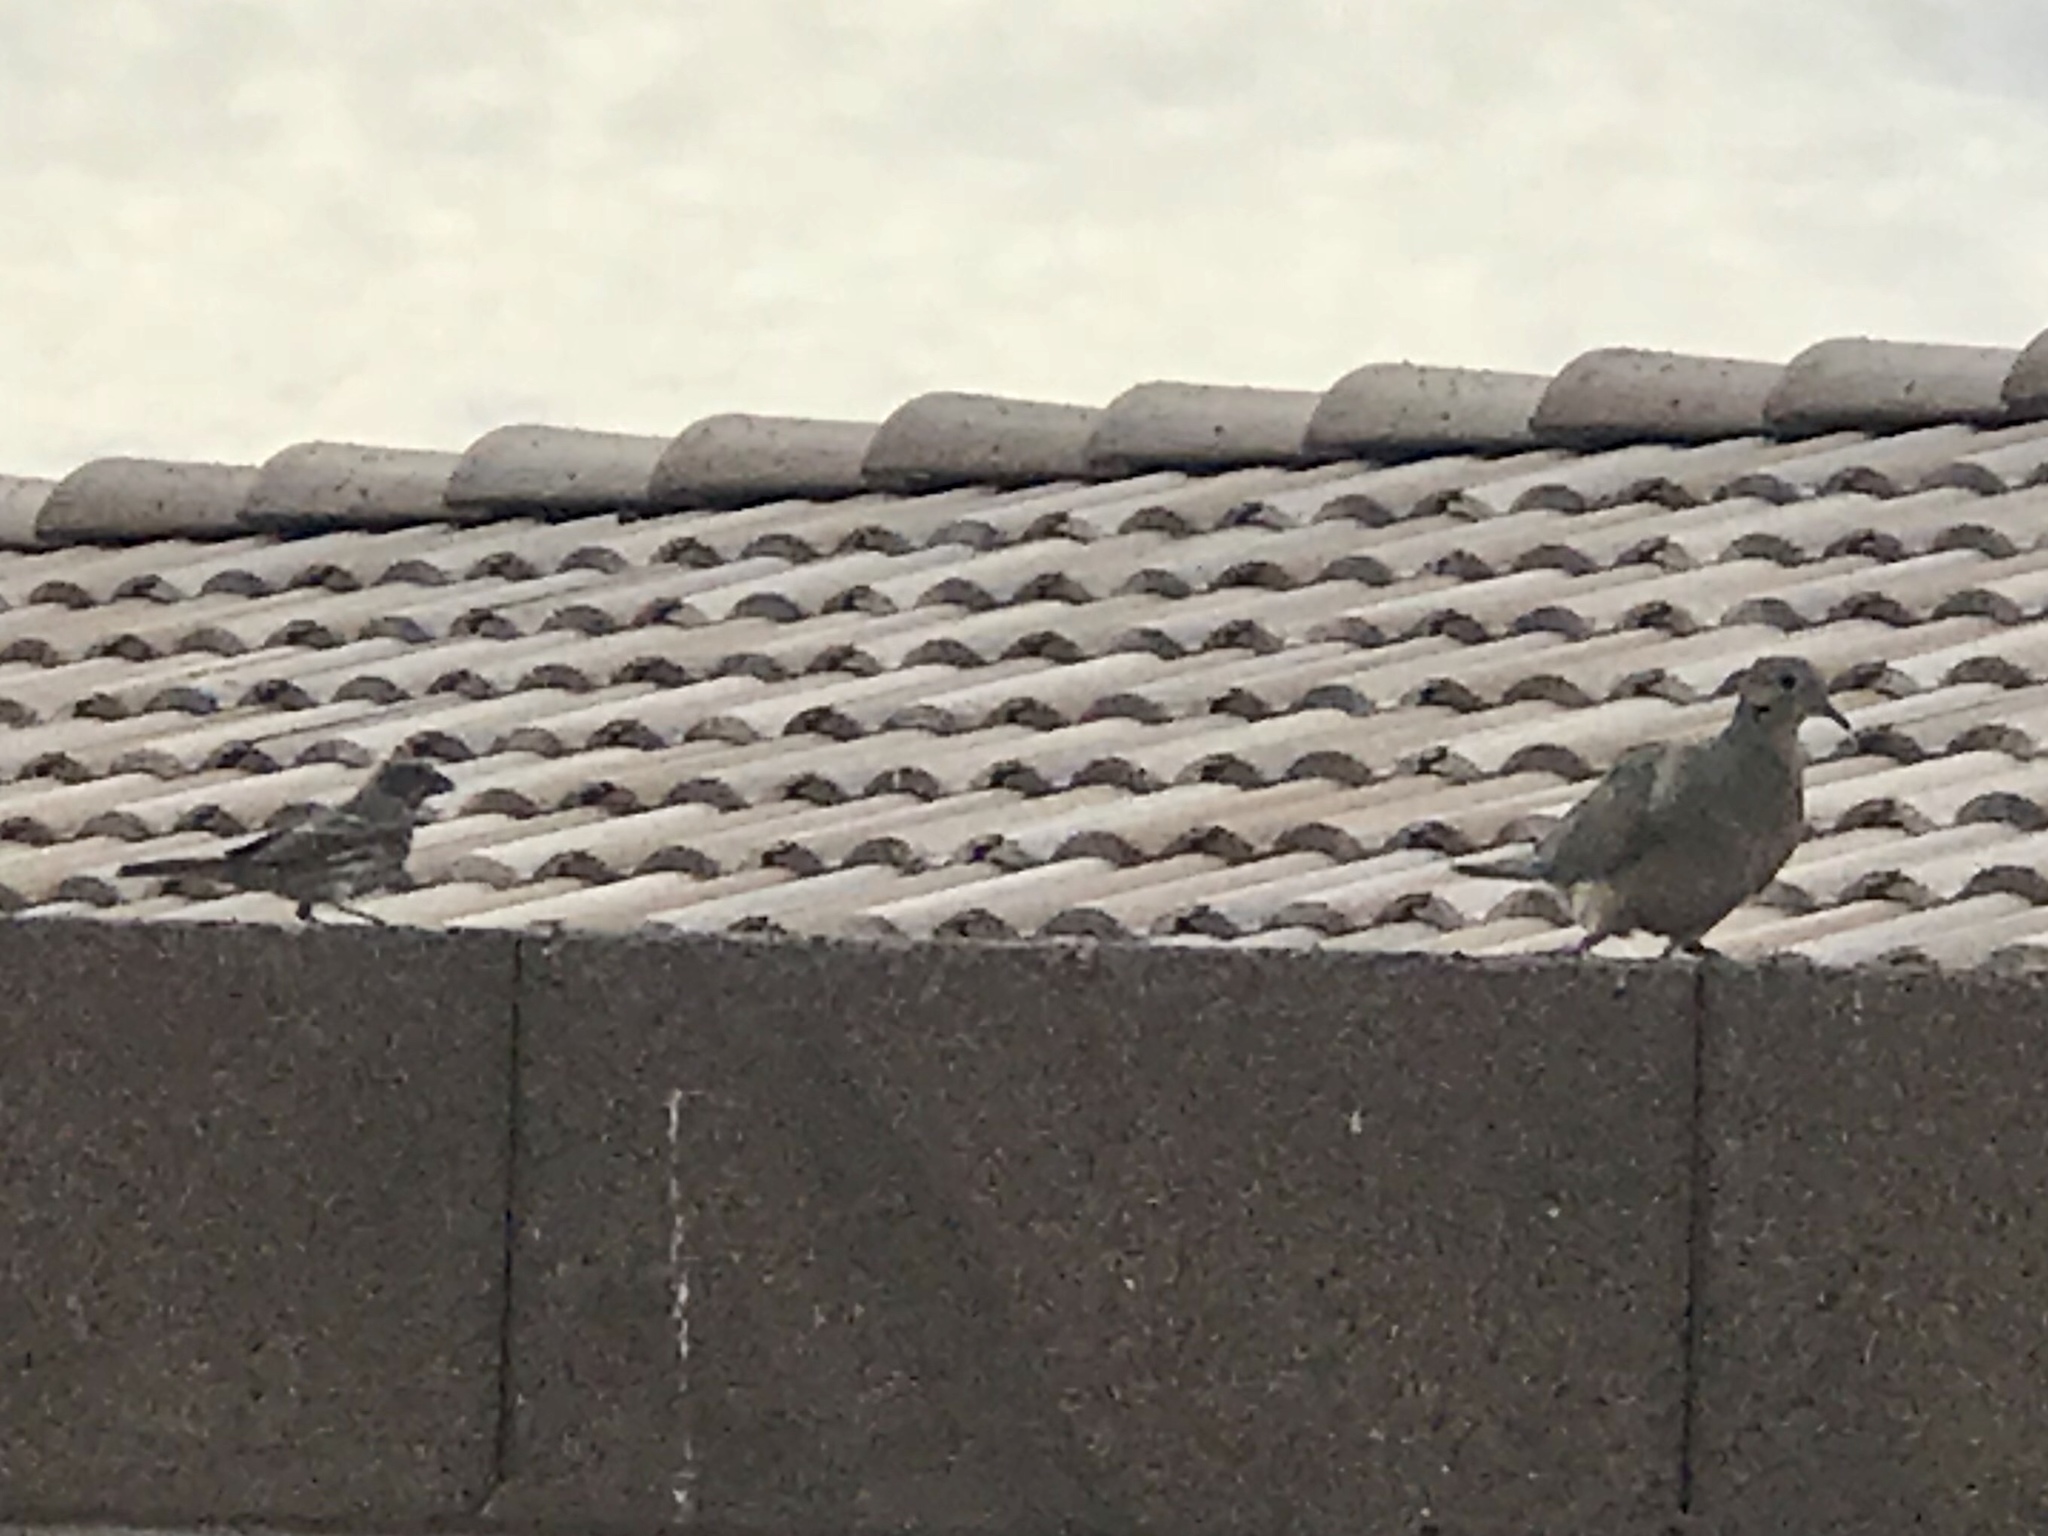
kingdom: Animalia
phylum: Chordata
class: Aves
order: Columbiformes
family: Columbidae
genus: Zenaida
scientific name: Zenaida macroura
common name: Mourning dove
